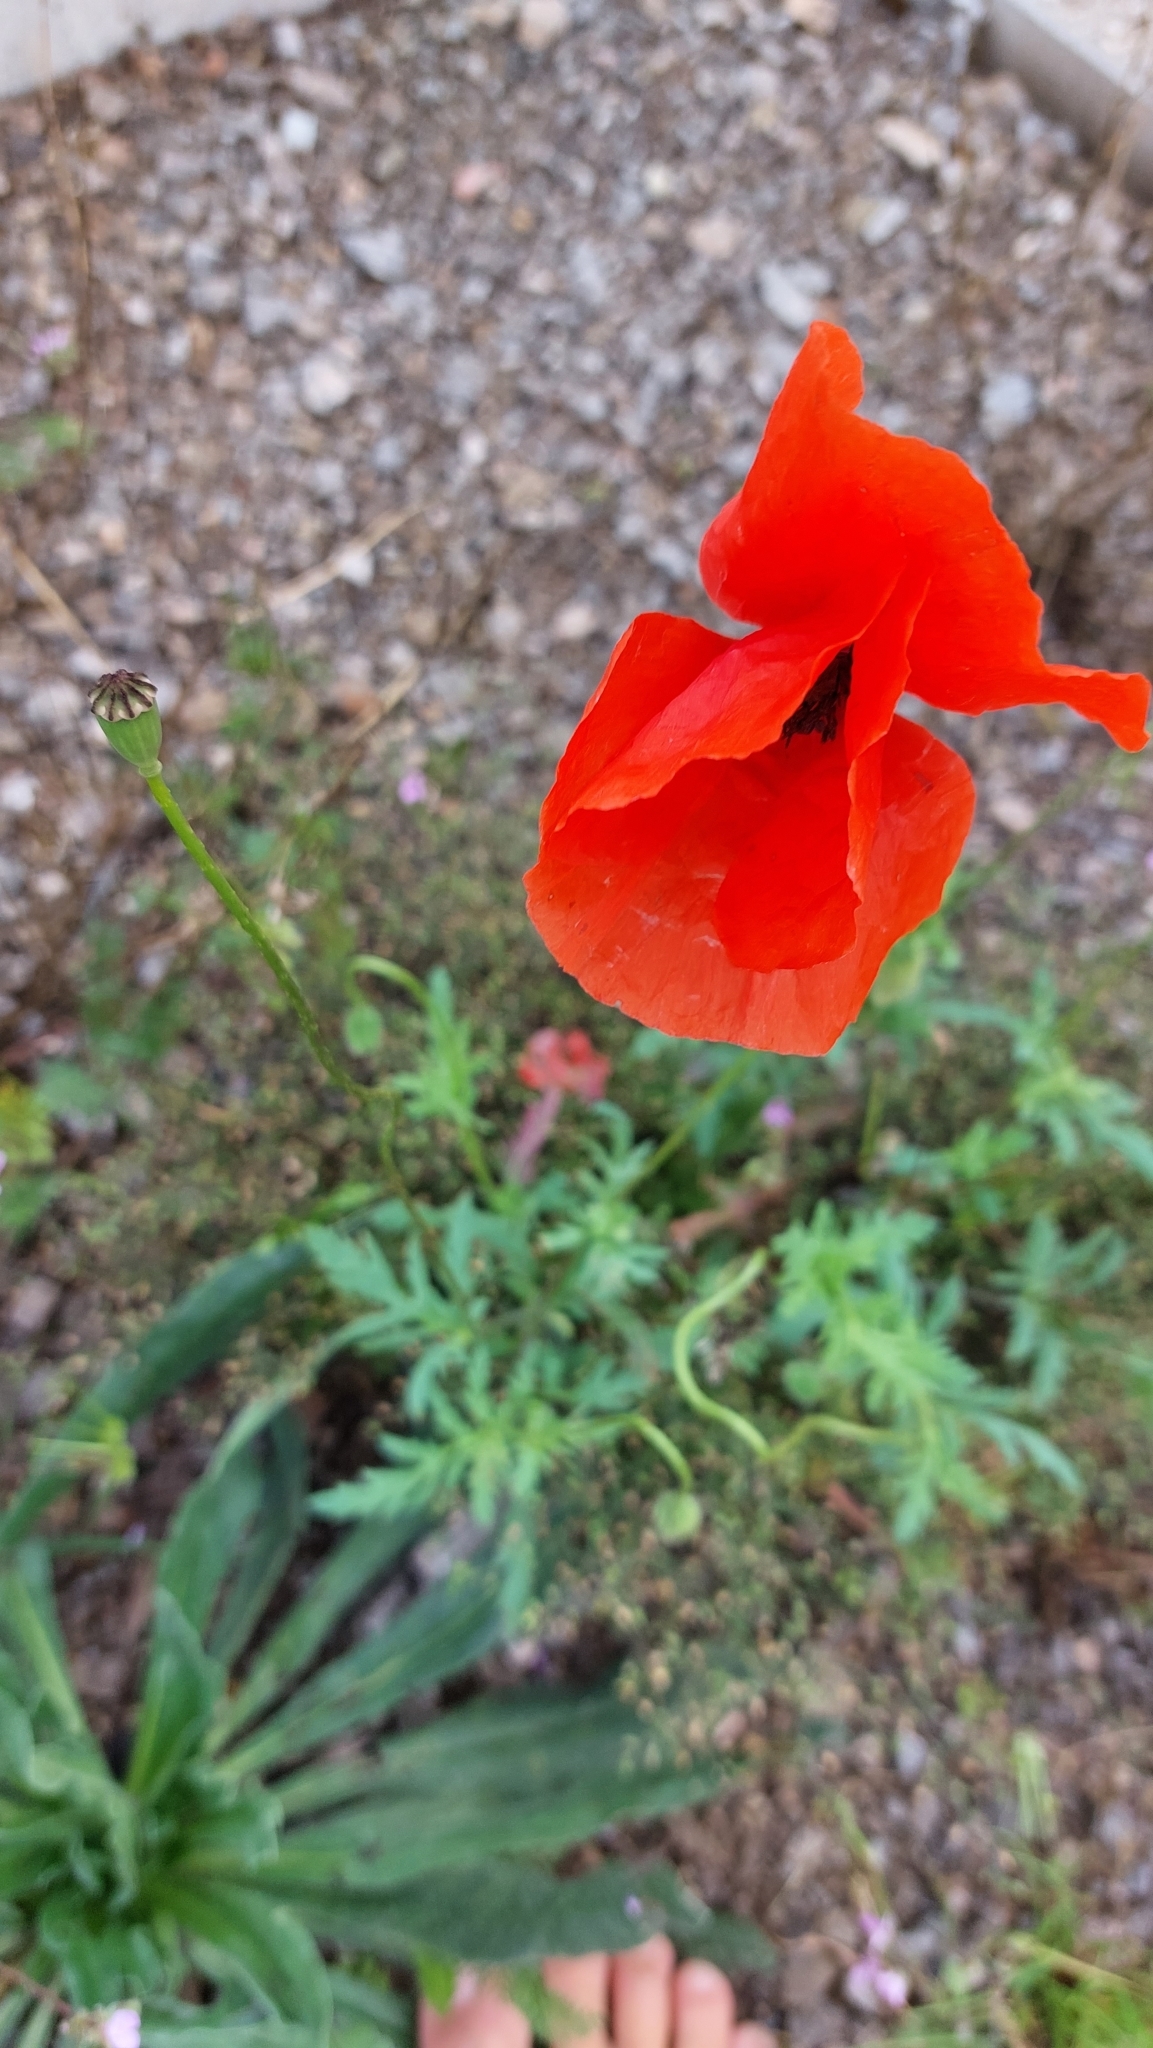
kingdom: Plantae
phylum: Tracheophyta
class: Magnoliopsida
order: Ranunculales
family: Papaveraceae
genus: Papaver
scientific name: Papaver rhoeas
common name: Corn poppy
